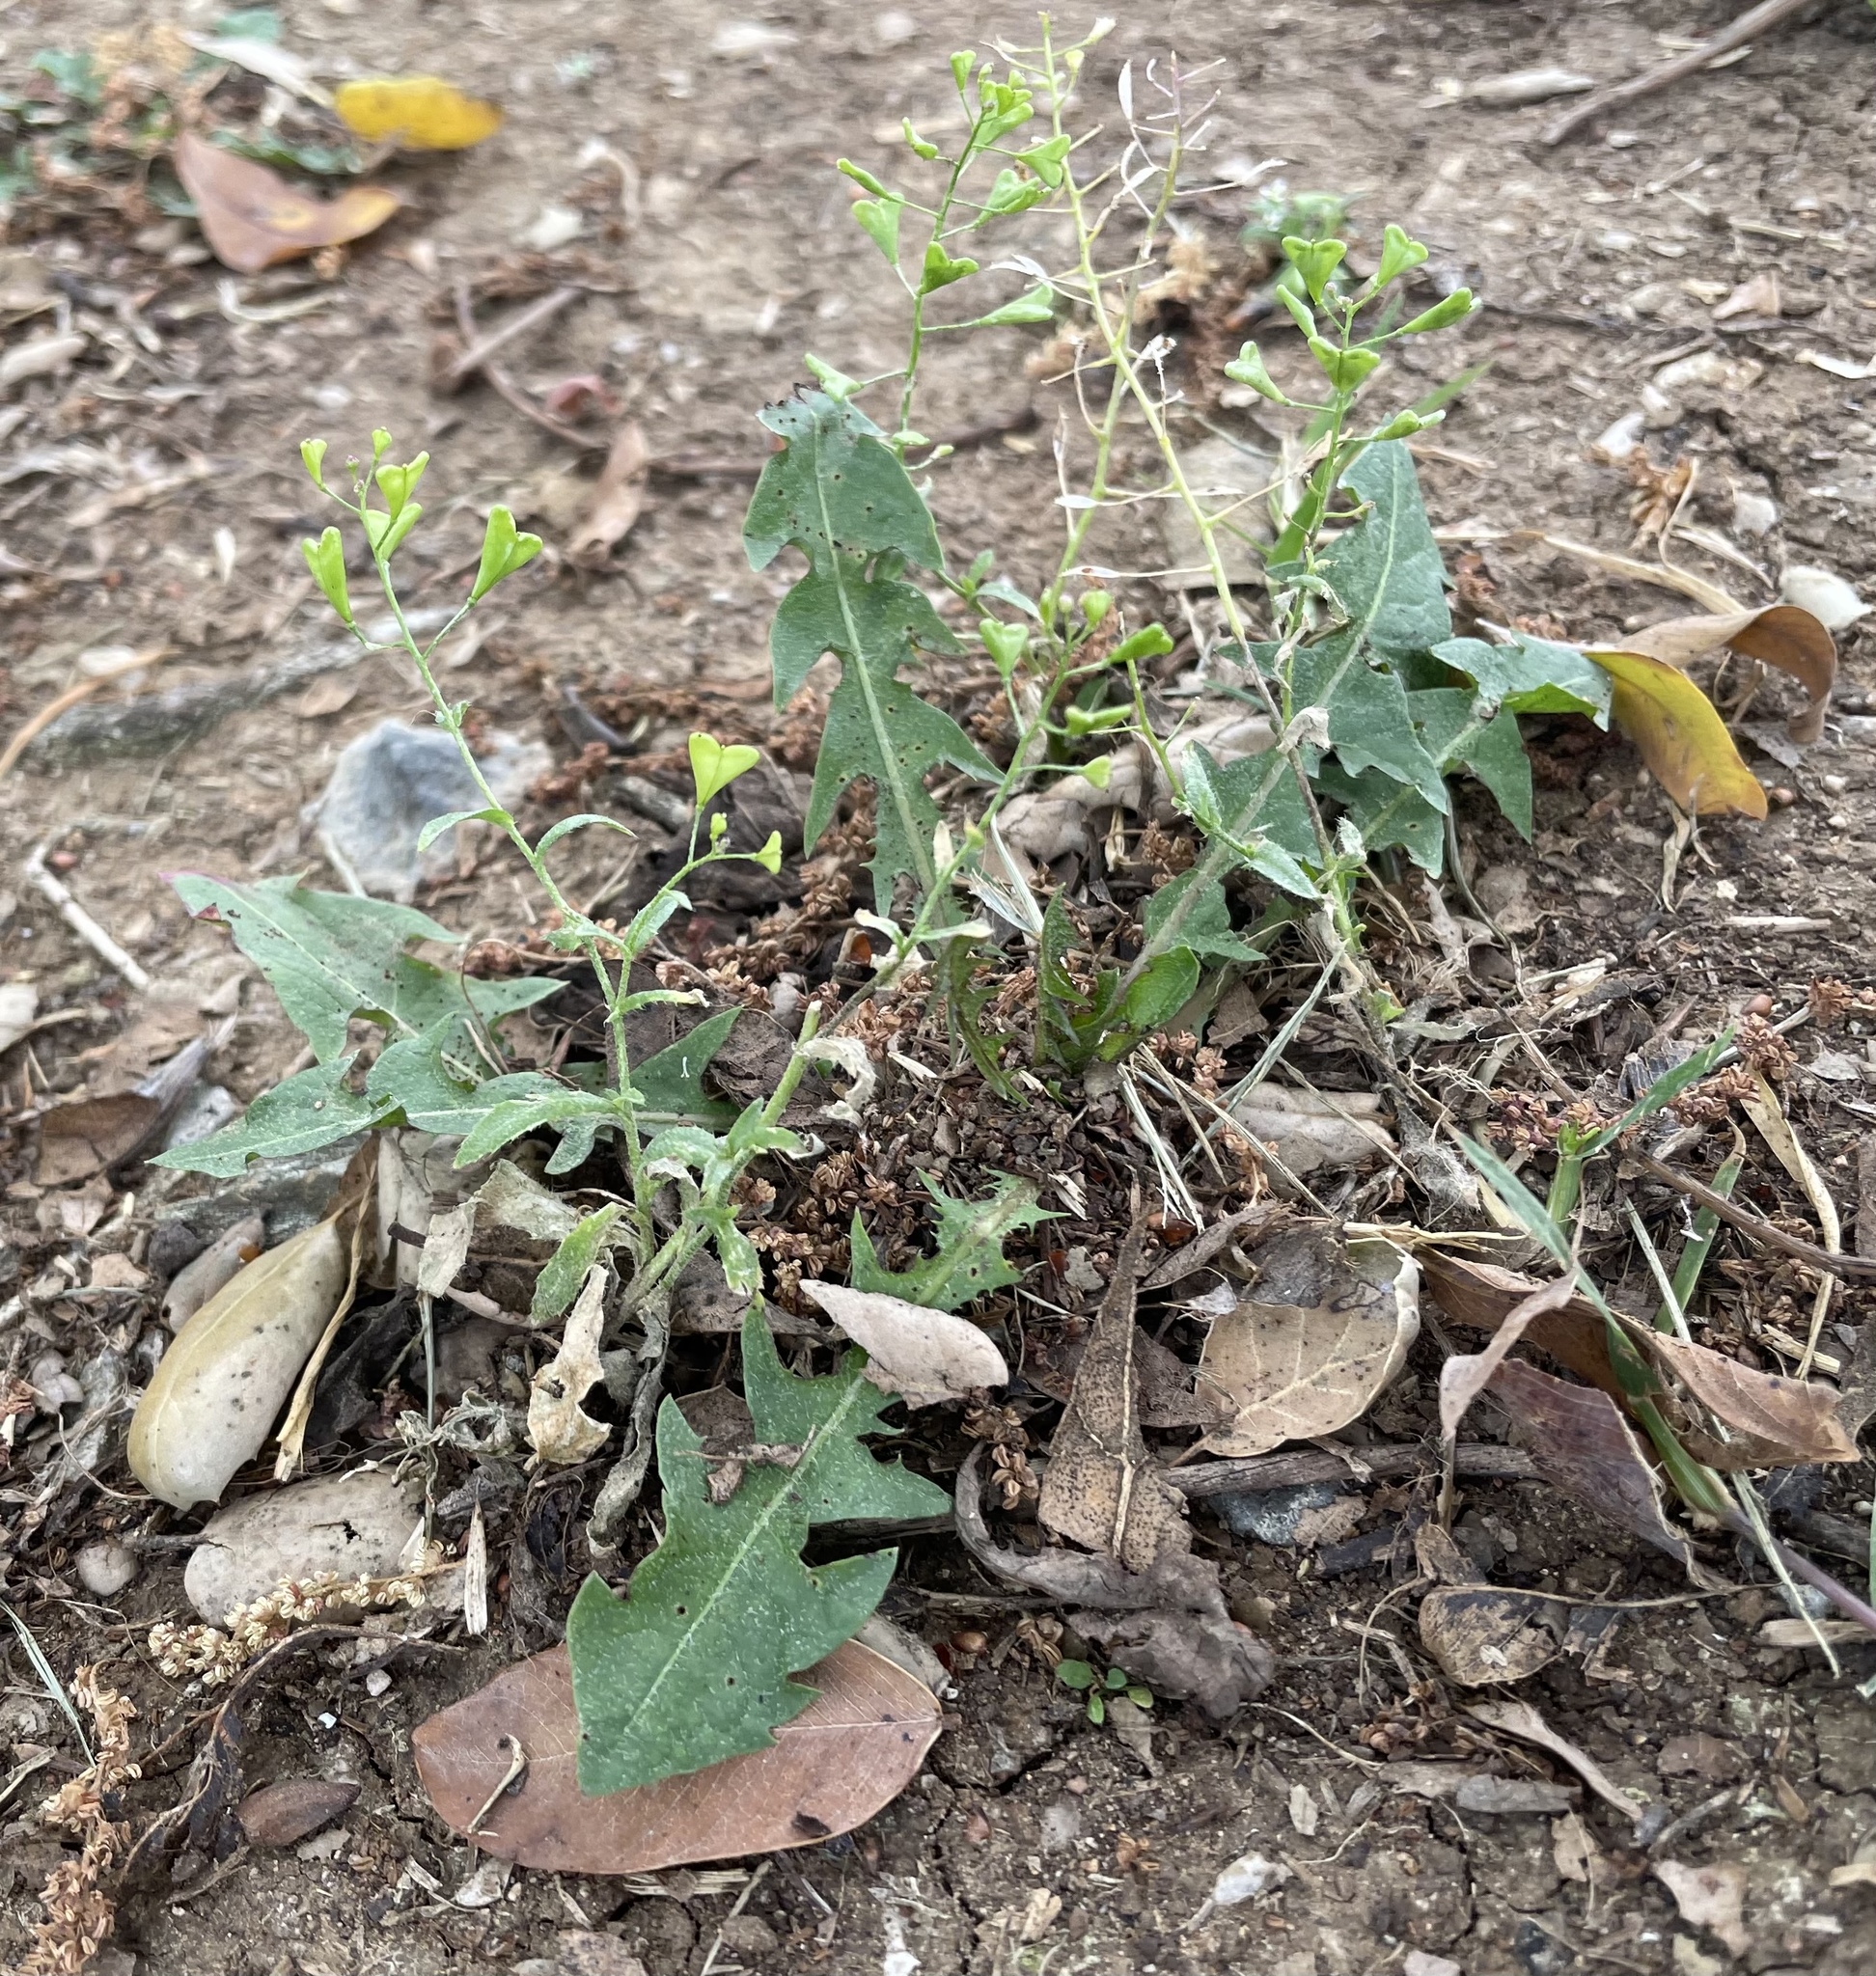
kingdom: Plantae
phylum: Tracheophyta
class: Magnoliopsida
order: Brassicales
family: Brassicaceae
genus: Capsella
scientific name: Capsella bursa-pastoris
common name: Shepherd's purse
